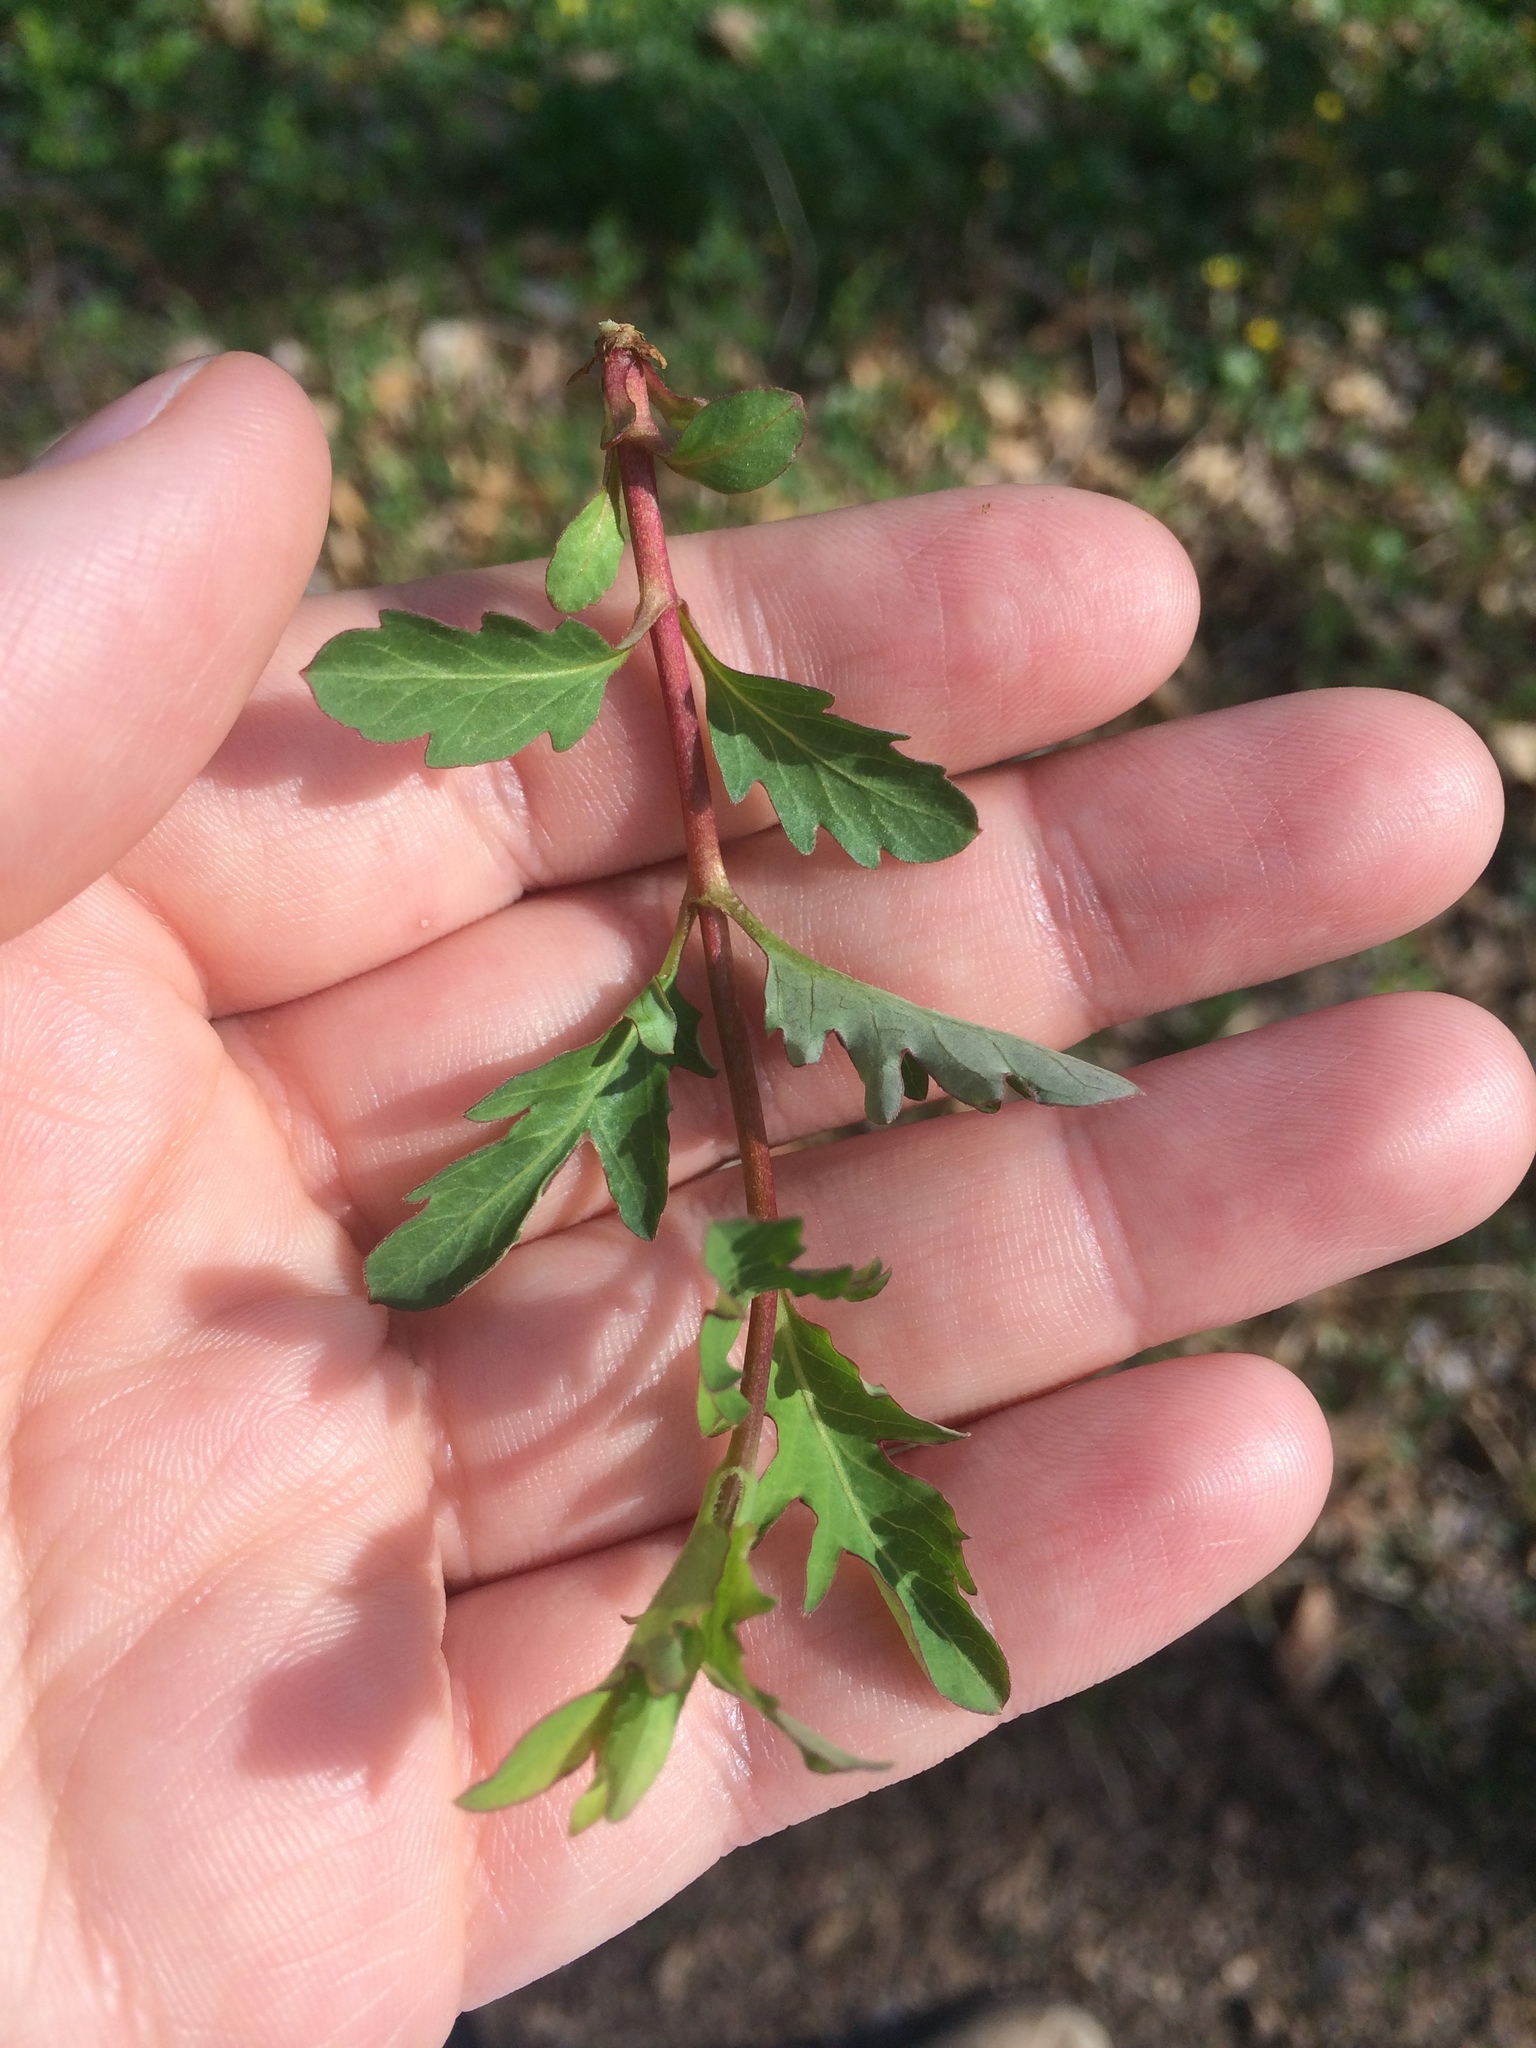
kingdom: Plantae
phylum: Tracheophyta
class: Magnoliopsida
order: Dipsacales
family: Caprifoliaceae
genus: Lonicera
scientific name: Lonicera japonica
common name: Japanese honeysuckle
